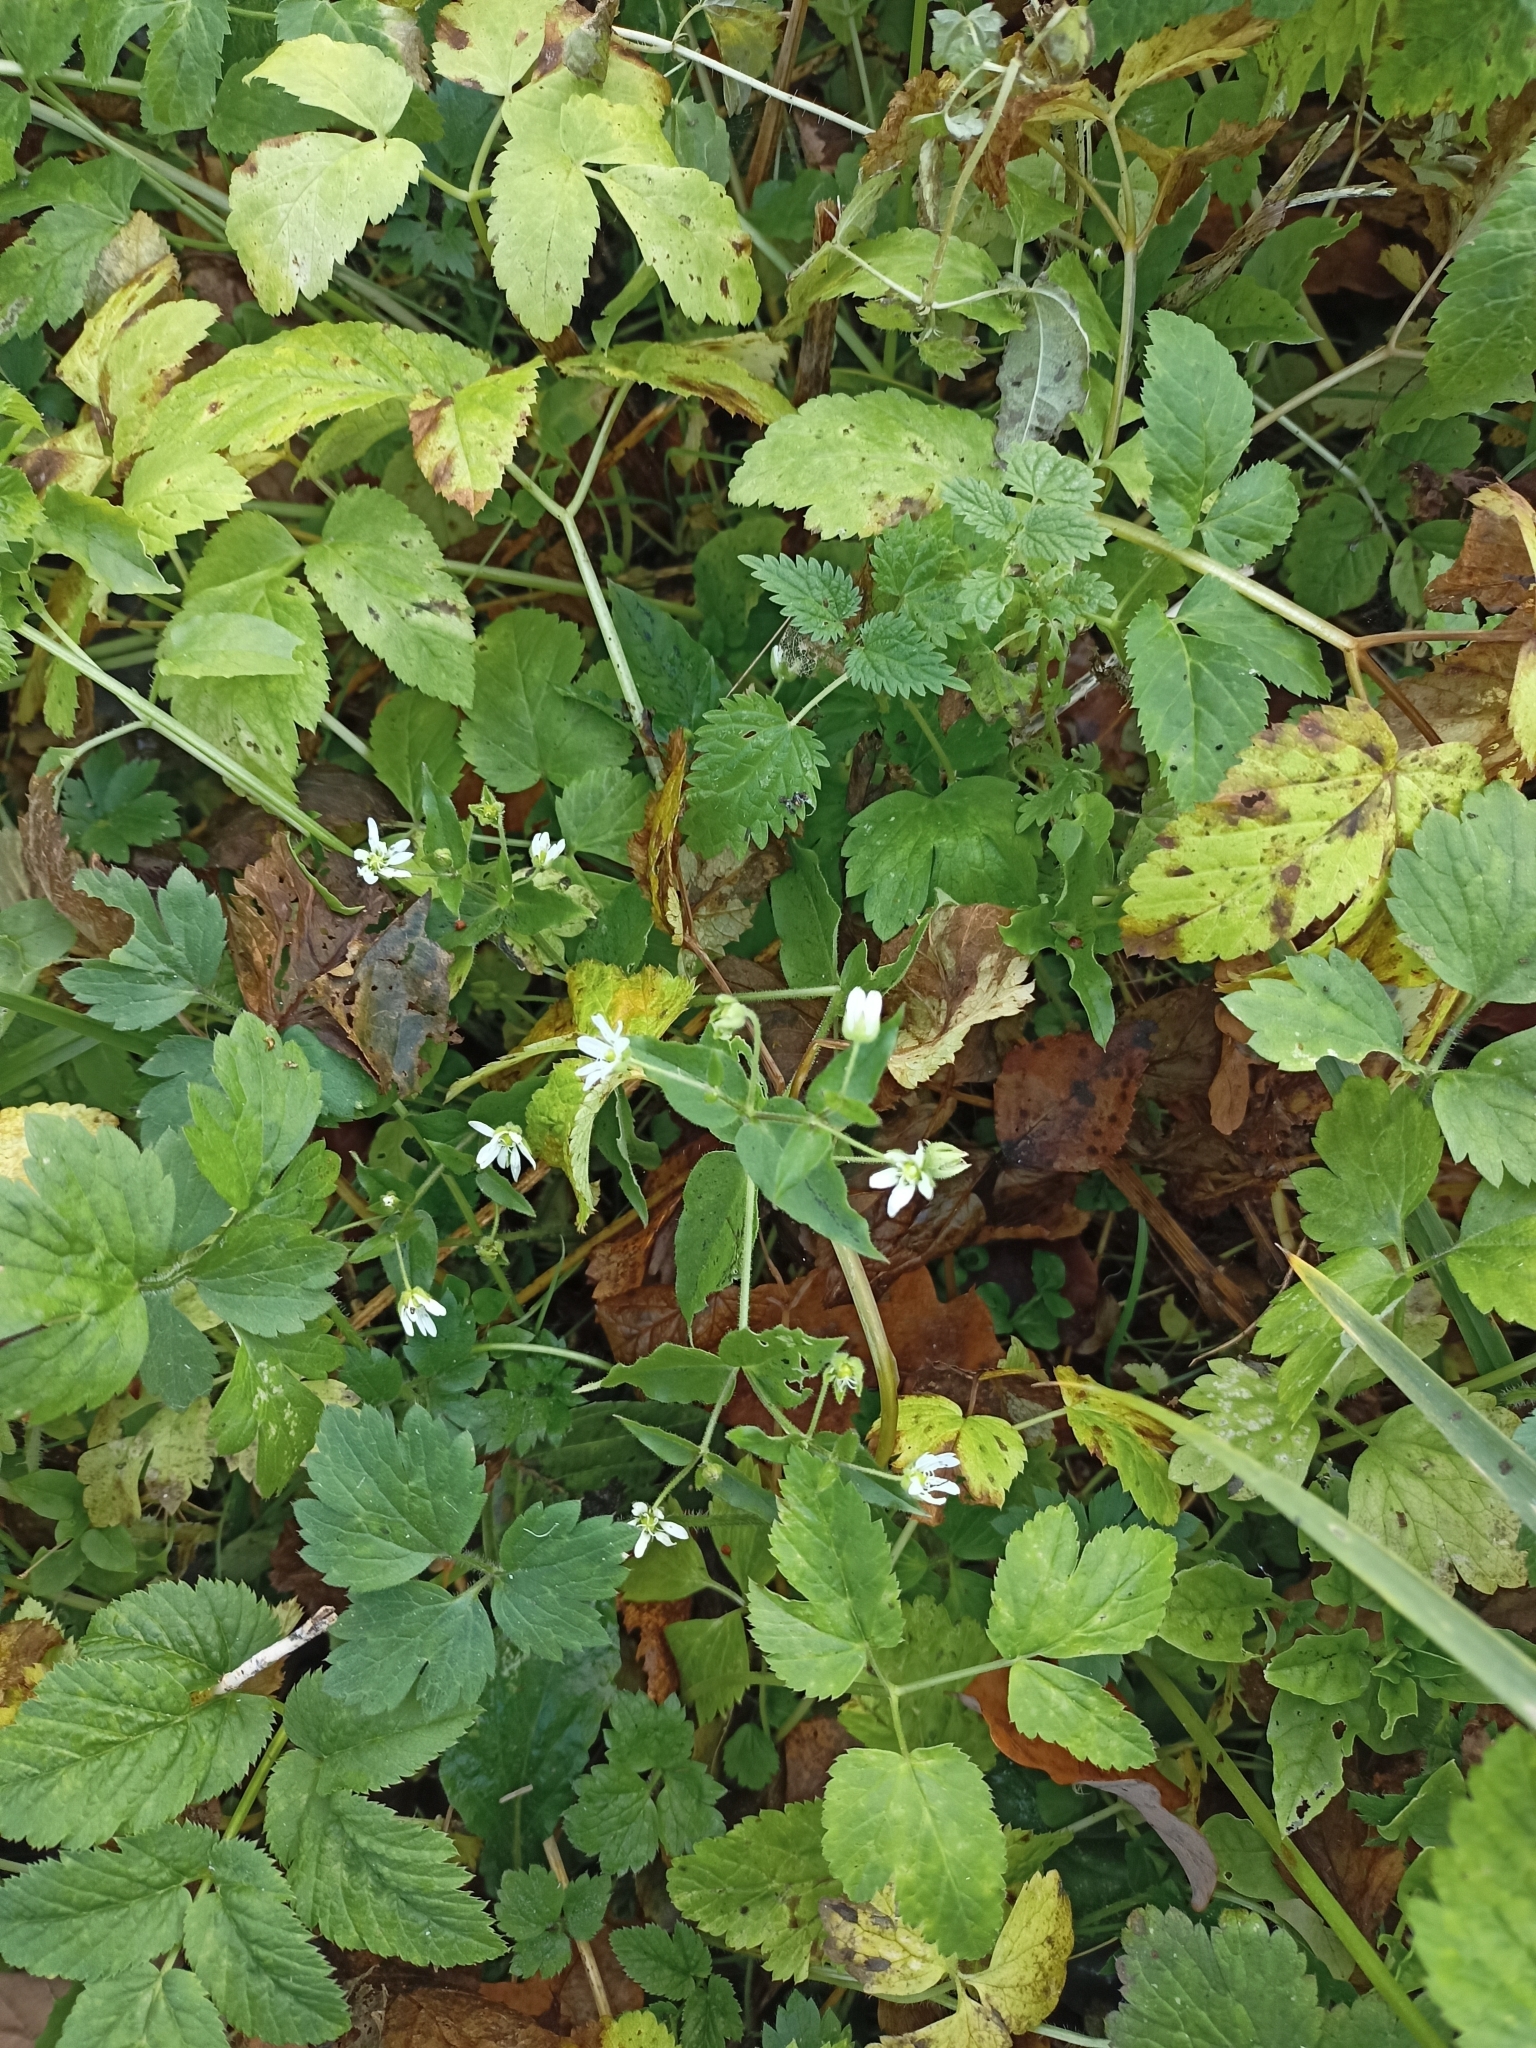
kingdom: Plantae
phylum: Tracheophyta
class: Magnoliopsida
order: Caryophyllales
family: Caryophyllaceae
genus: Stellaria
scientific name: Stellaria aquatica
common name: Water chickweed
